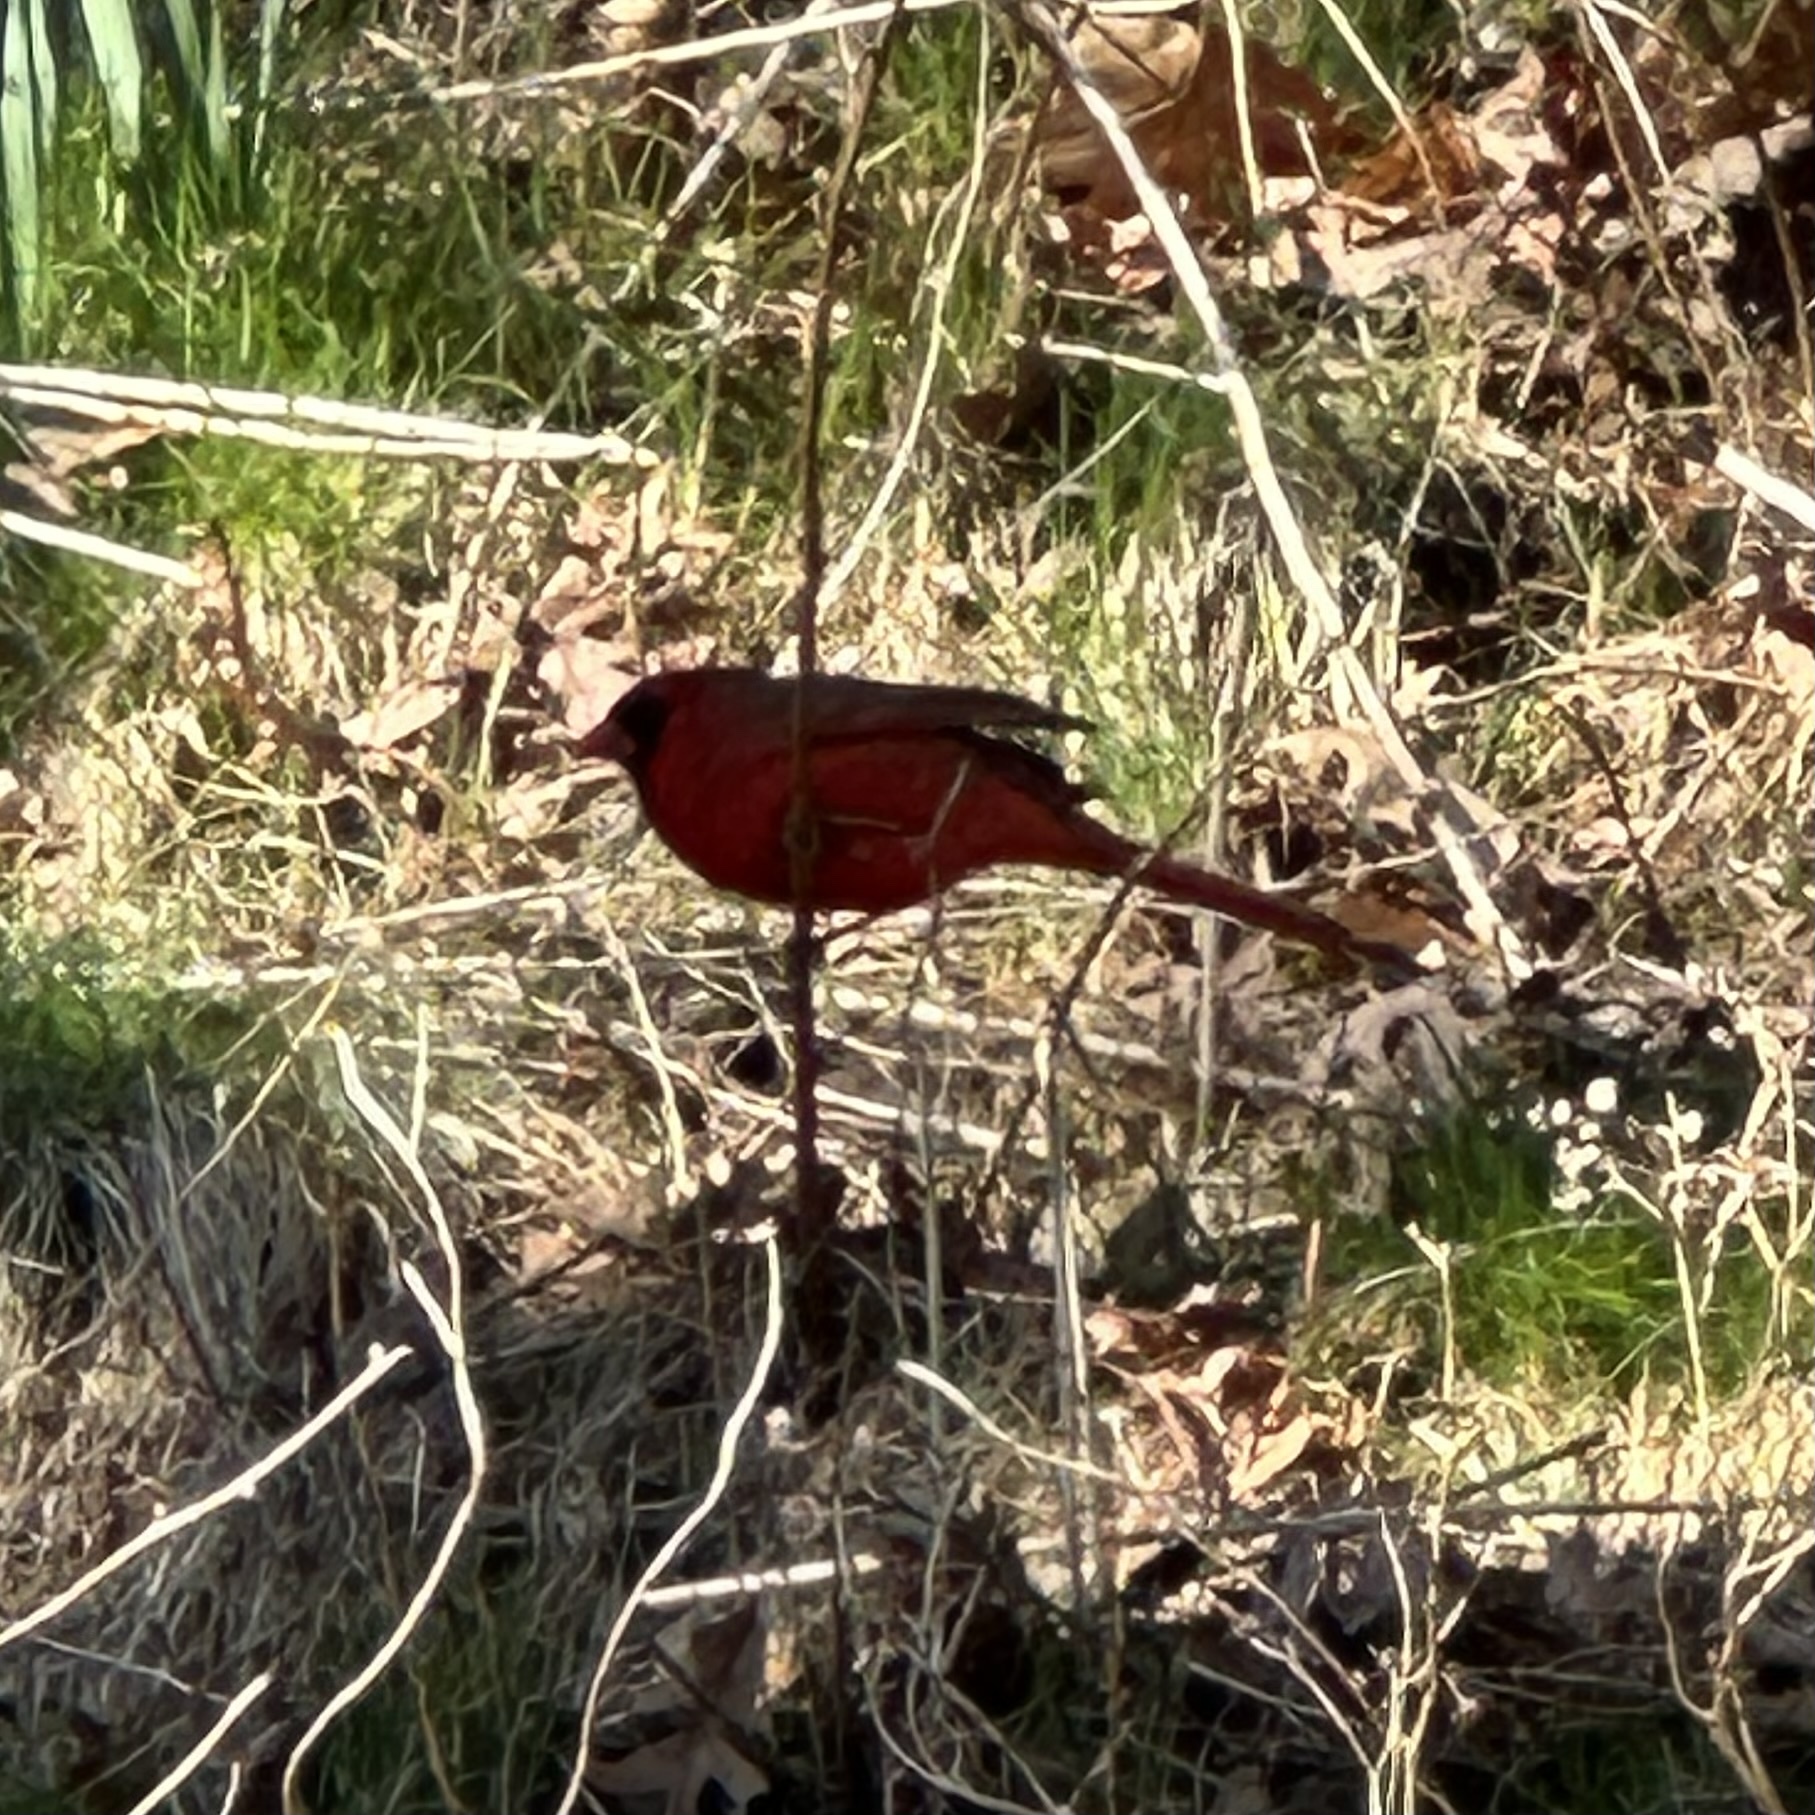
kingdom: Animalia
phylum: Chordata
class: Aves
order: Passeriformes
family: Cardinalidae
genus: Cardinalis
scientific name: Cardinalis cardinalis
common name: Northern cardinal
